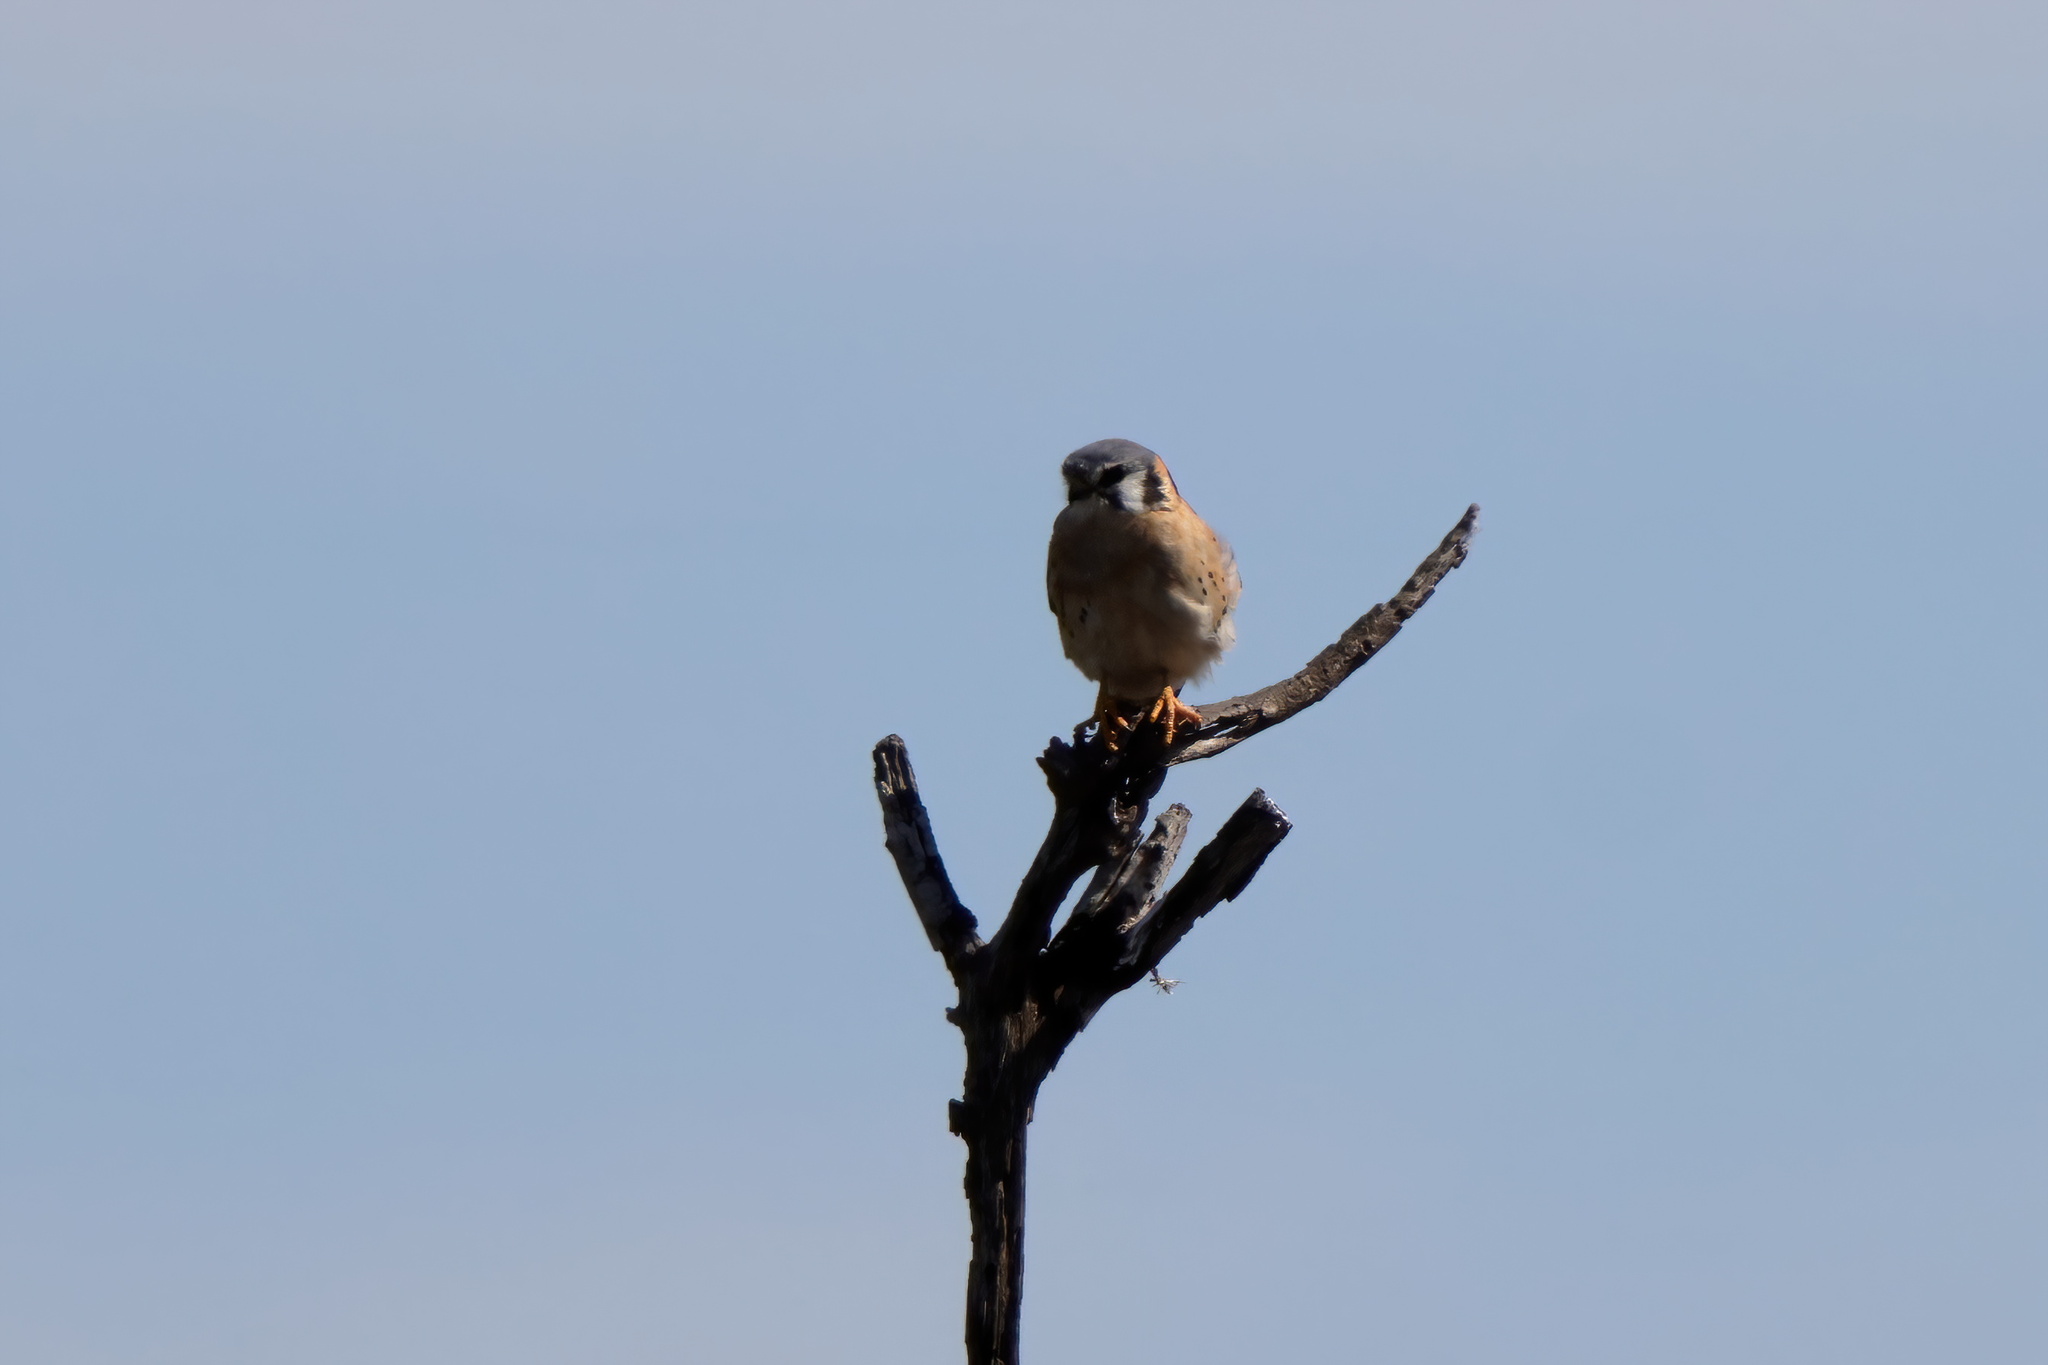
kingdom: Animalia
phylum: Chordata
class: Aves
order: Falconiformes
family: Falconidae
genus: Falco
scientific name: Falco sparverius
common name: American kestrel
